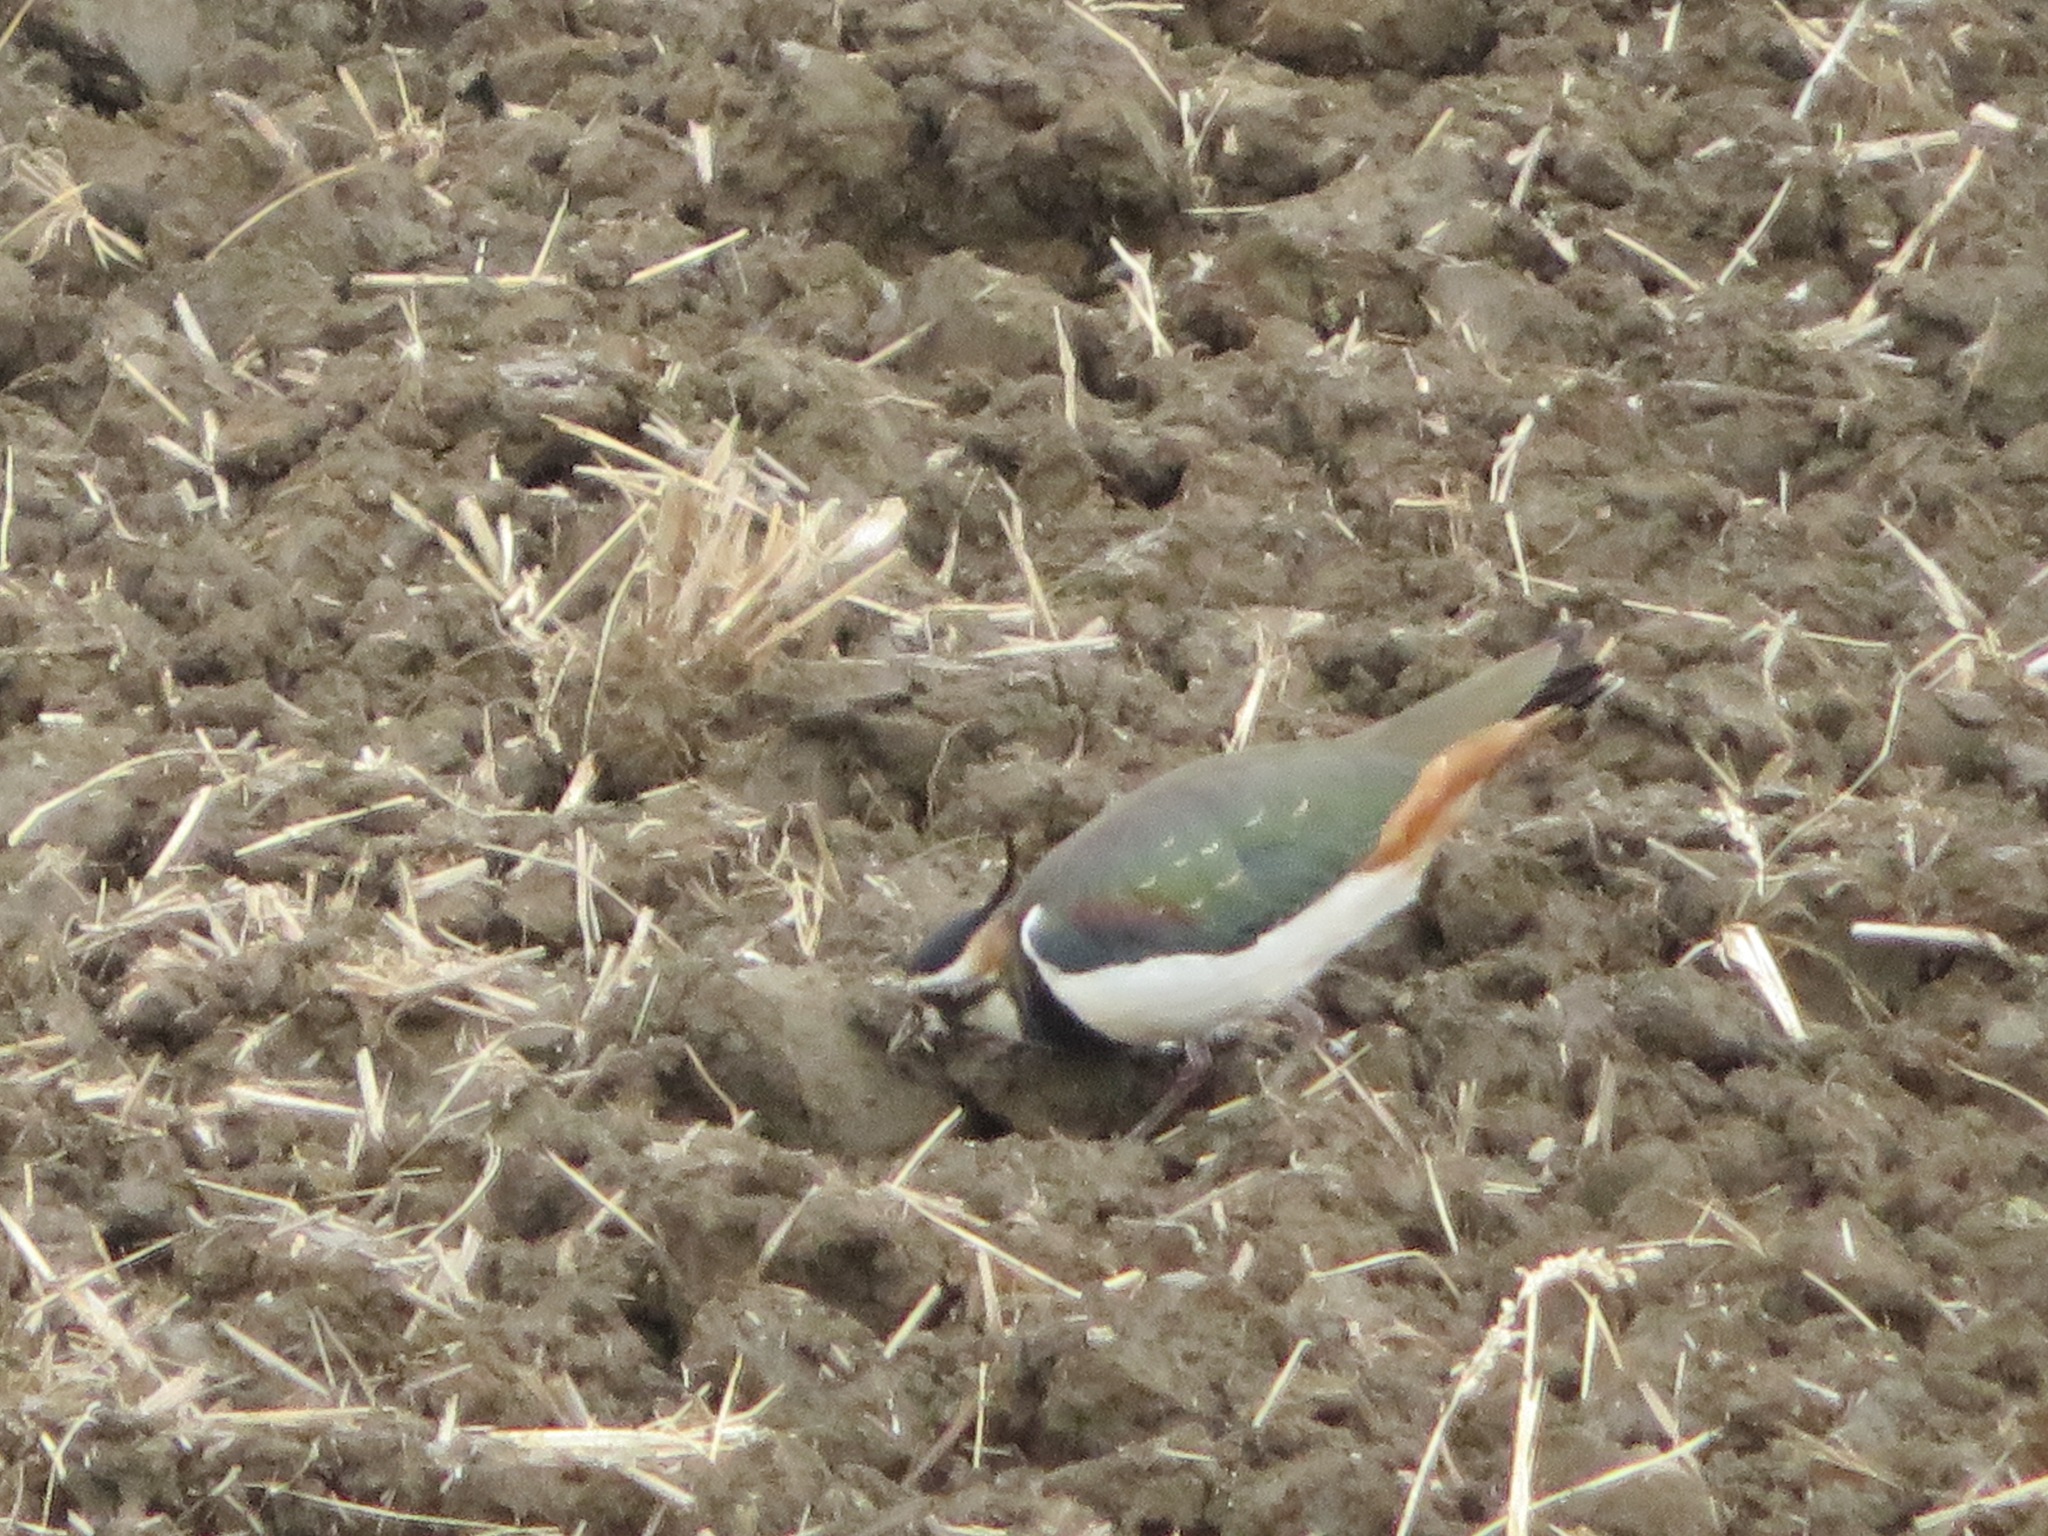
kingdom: Animalia
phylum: Chordata
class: Aves
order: Charadriiformes
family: Charadriidae
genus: Vanellus
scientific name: Vanellus vanellus
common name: Northern lapwing
